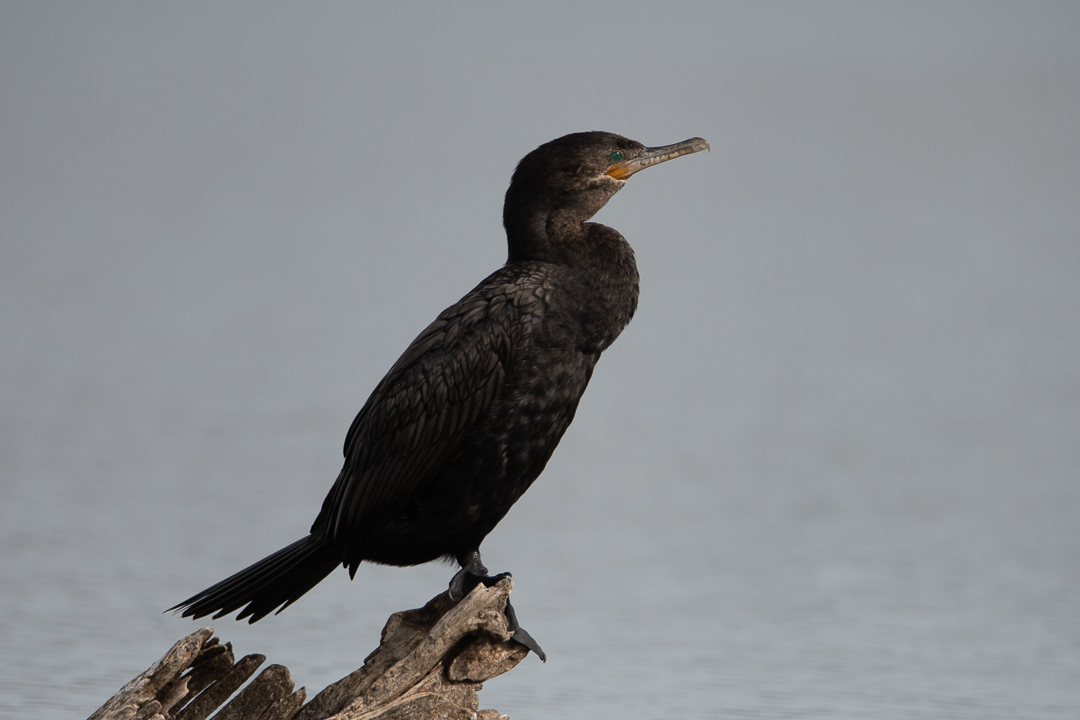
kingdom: Animalia
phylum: Chordata
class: Aves
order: Suliformes
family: Phalacrocoracidae
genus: Phalacrocorax
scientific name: Phalacrocorax brasilianus
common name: Neotropic cormorant
